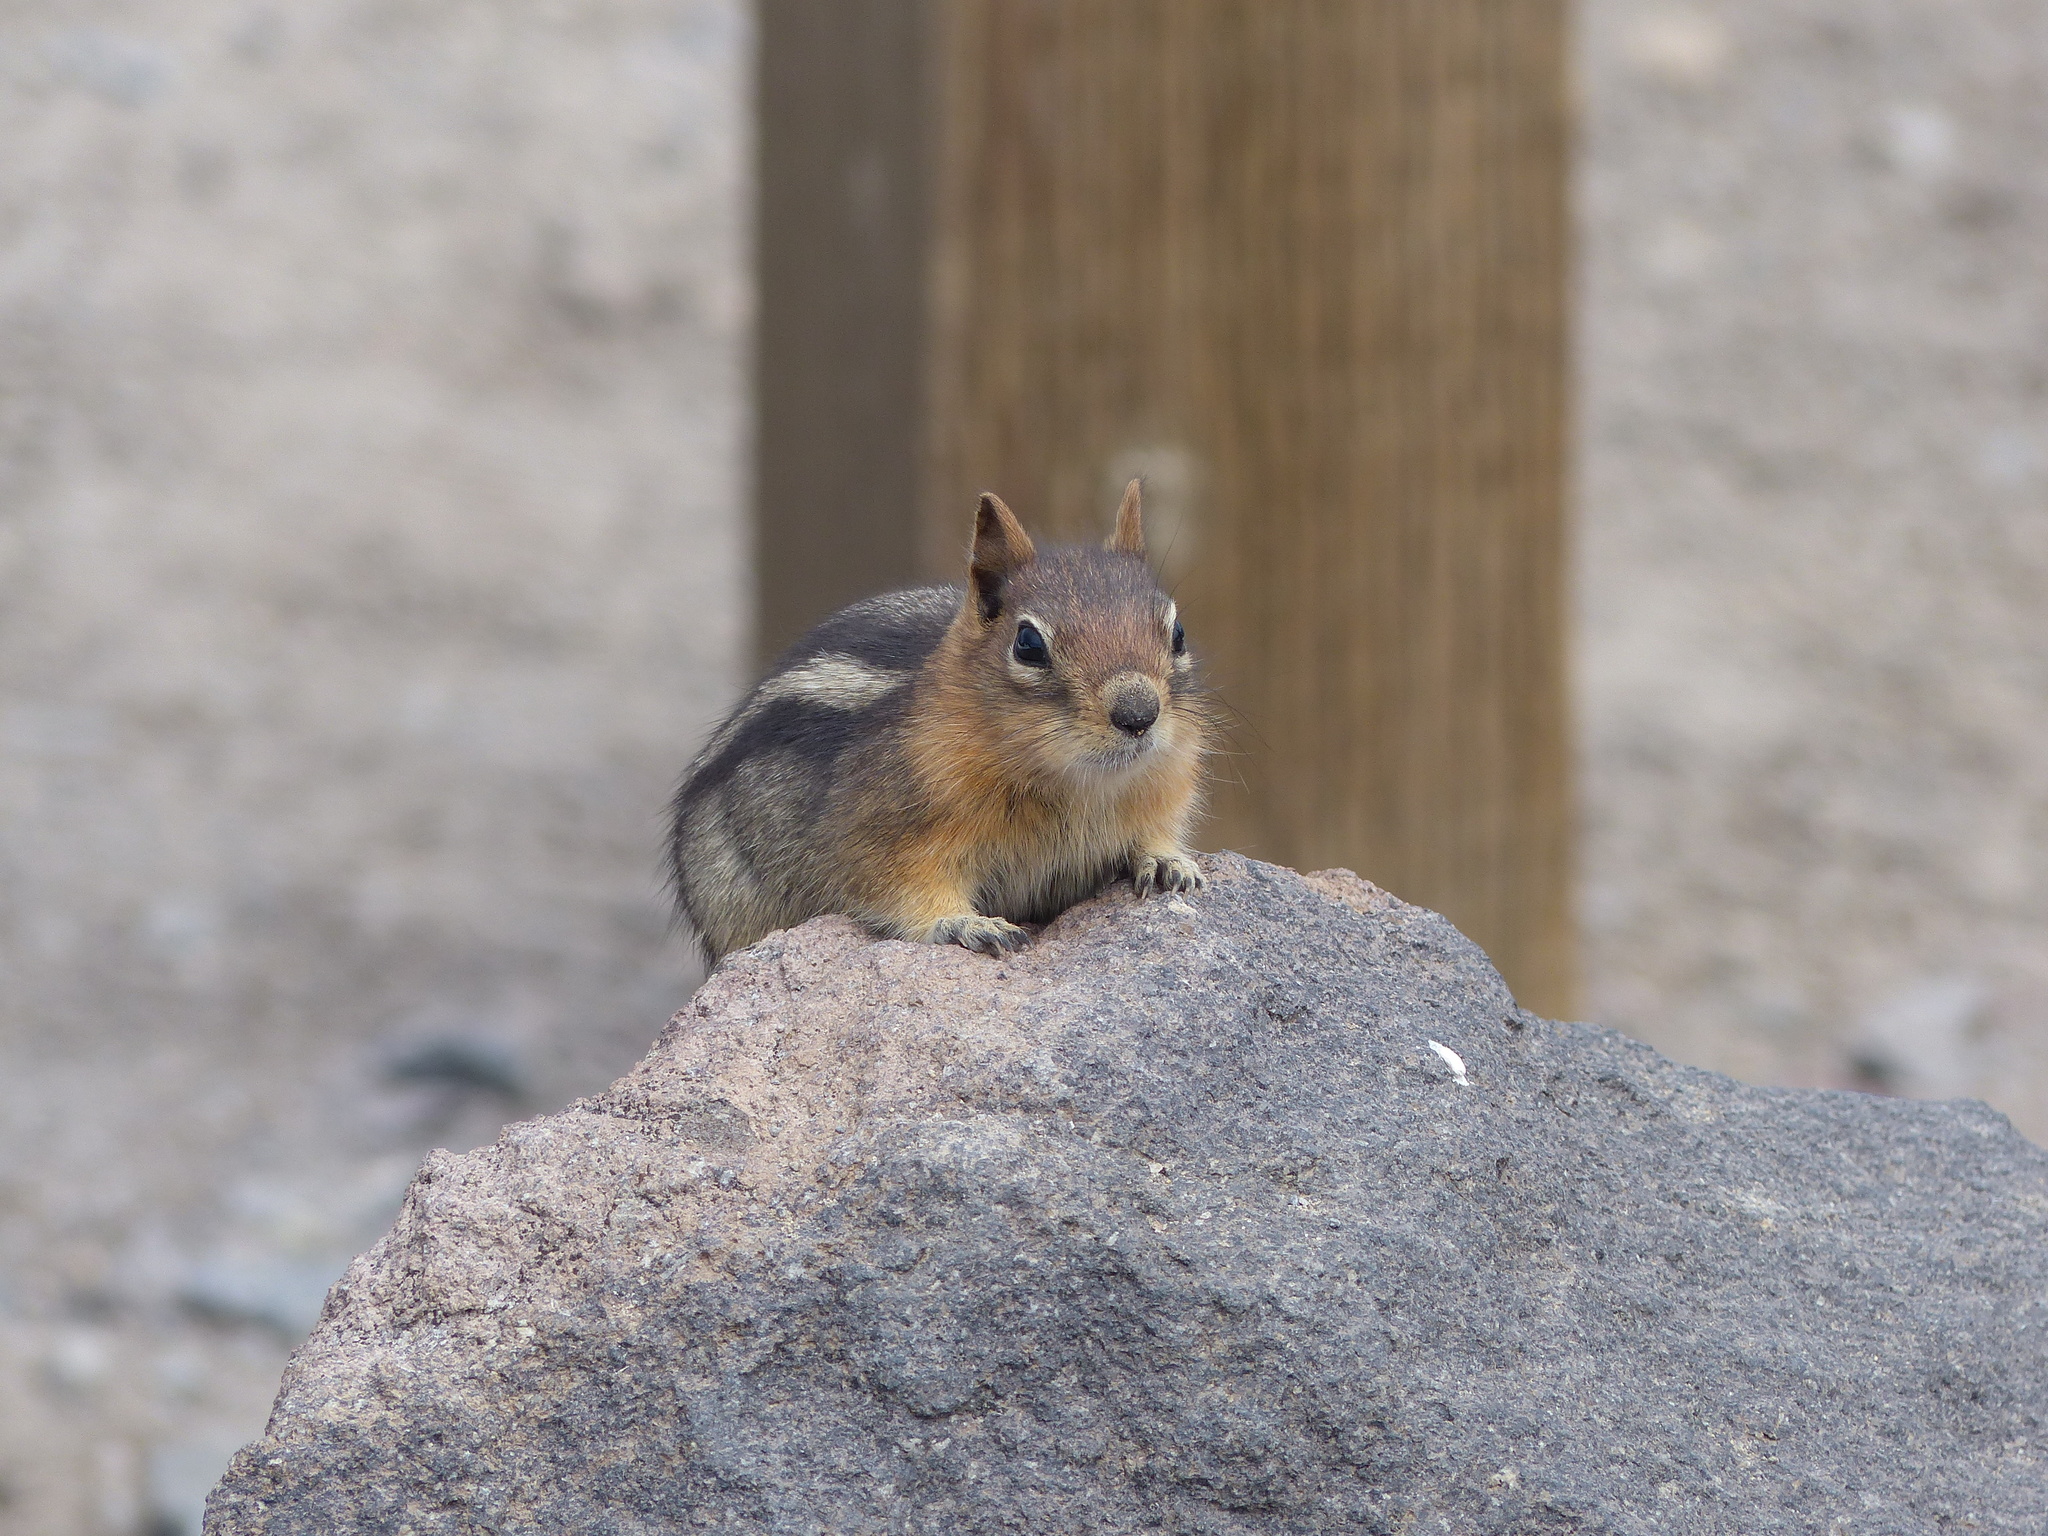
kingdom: Animalia
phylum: Chordata
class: Mammalia
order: Rodentia
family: Sciuridae
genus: Callospermophilus
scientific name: Callospermophilus lateralis
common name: Golden-mantled ground squirrel
